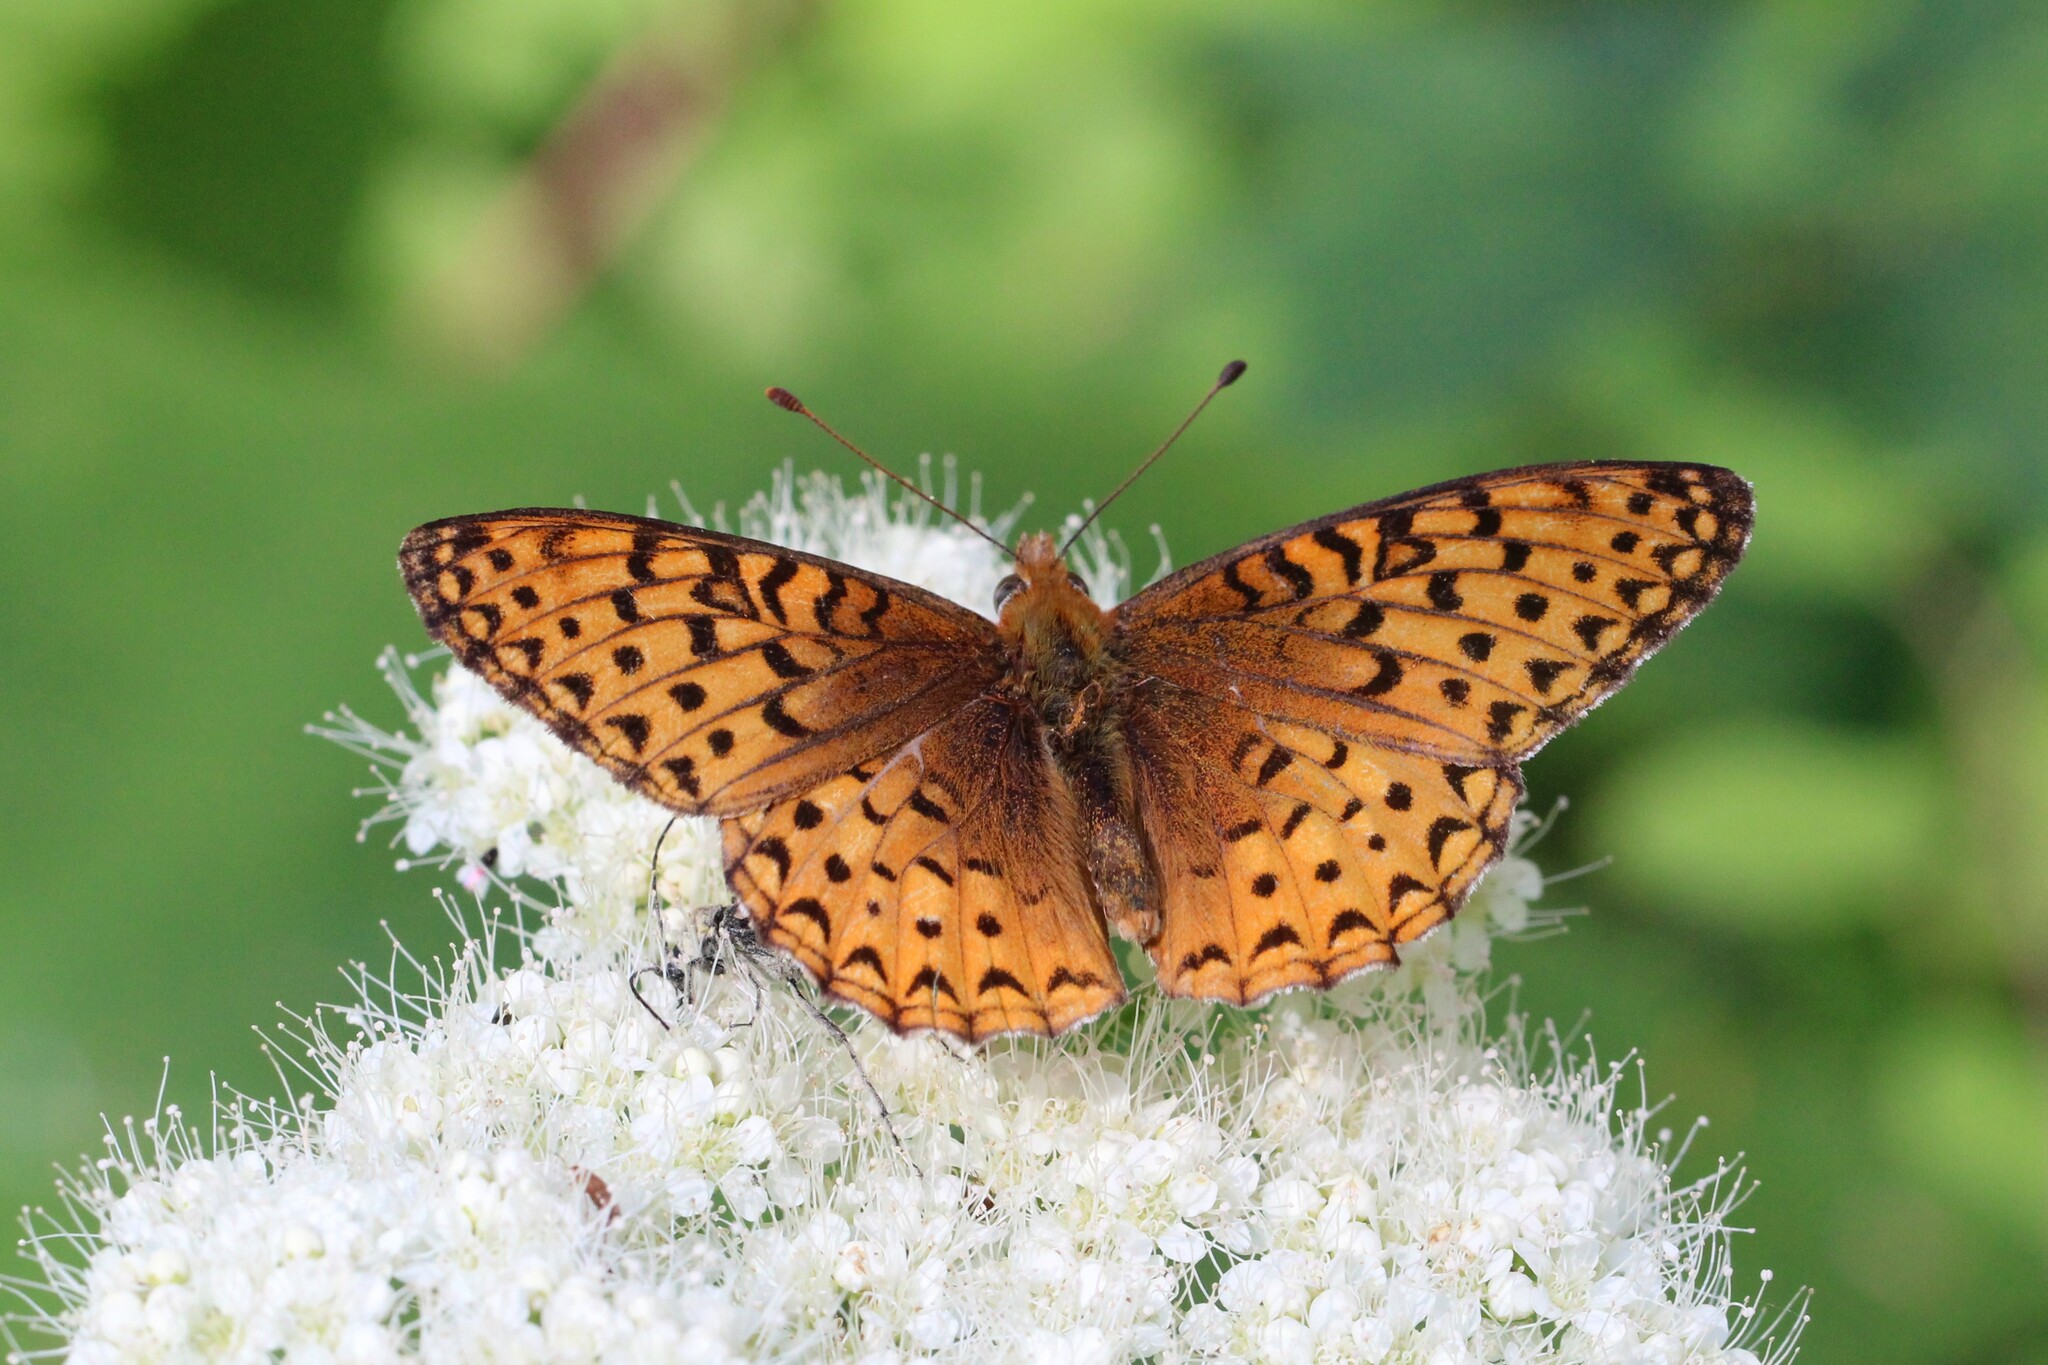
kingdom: Animalia
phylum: Arthropoda
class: Insecta
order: Lepidoptera
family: Nymphalidae
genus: Speyeria
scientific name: Speyeria atlantis
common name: Atlantis fritillary
